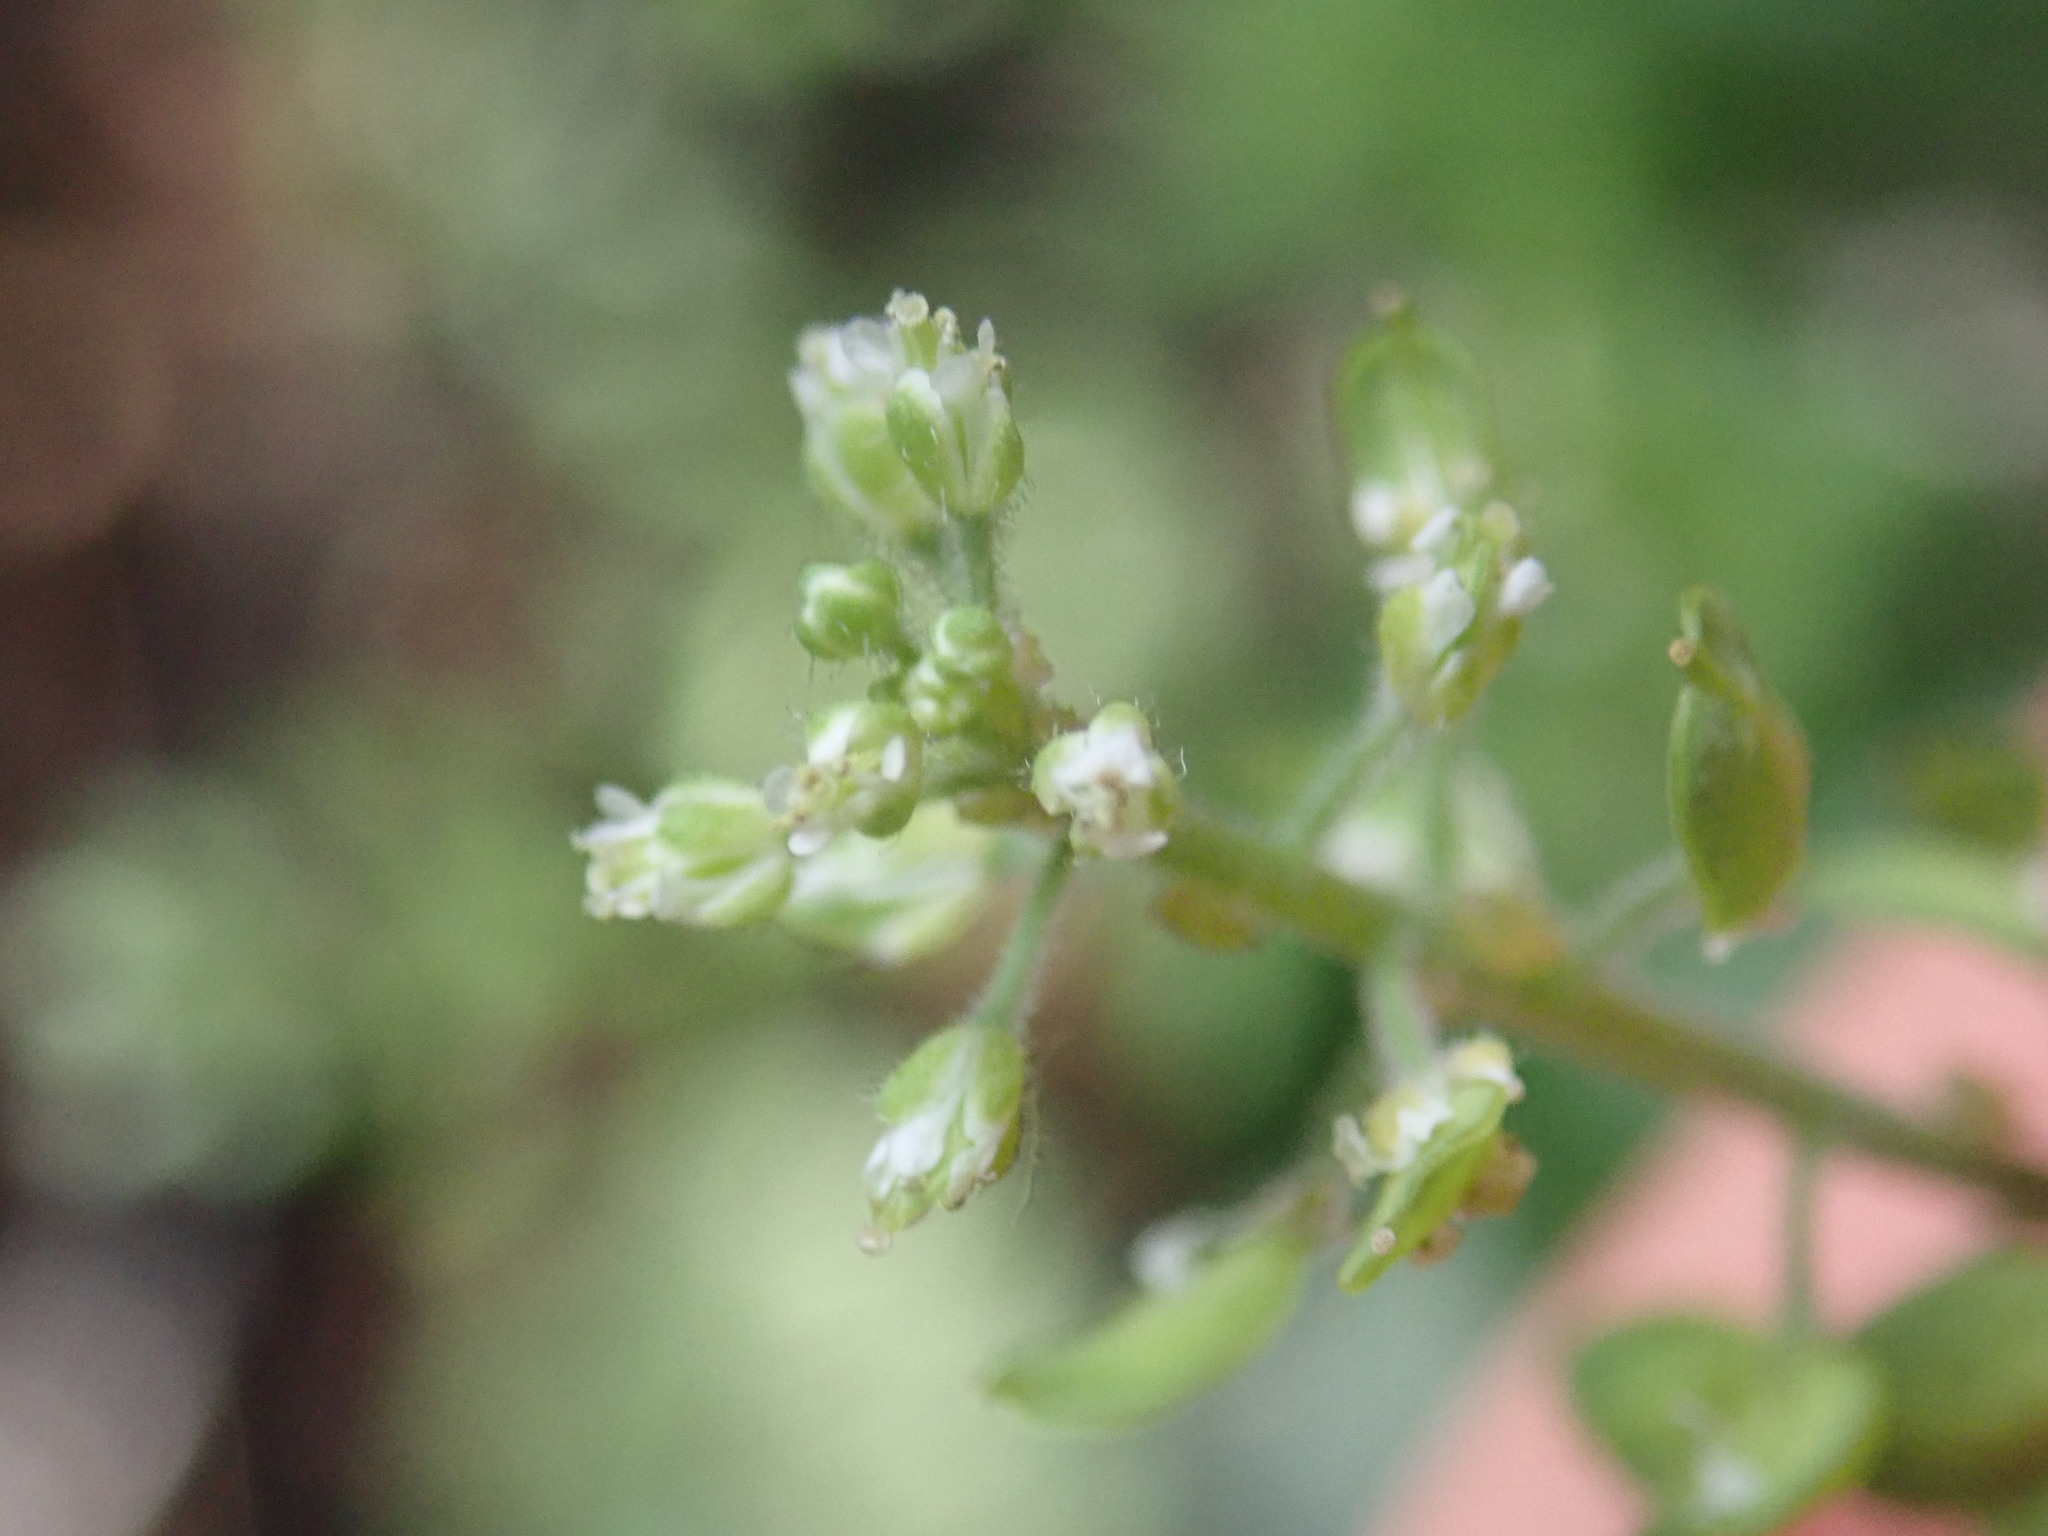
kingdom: Plantae
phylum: Tracheophyta
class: Magnoliopsida
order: Brassicales
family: Brassicaceae
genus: Lepidium
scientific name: Lepidium campestre
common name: Field pepperwort
